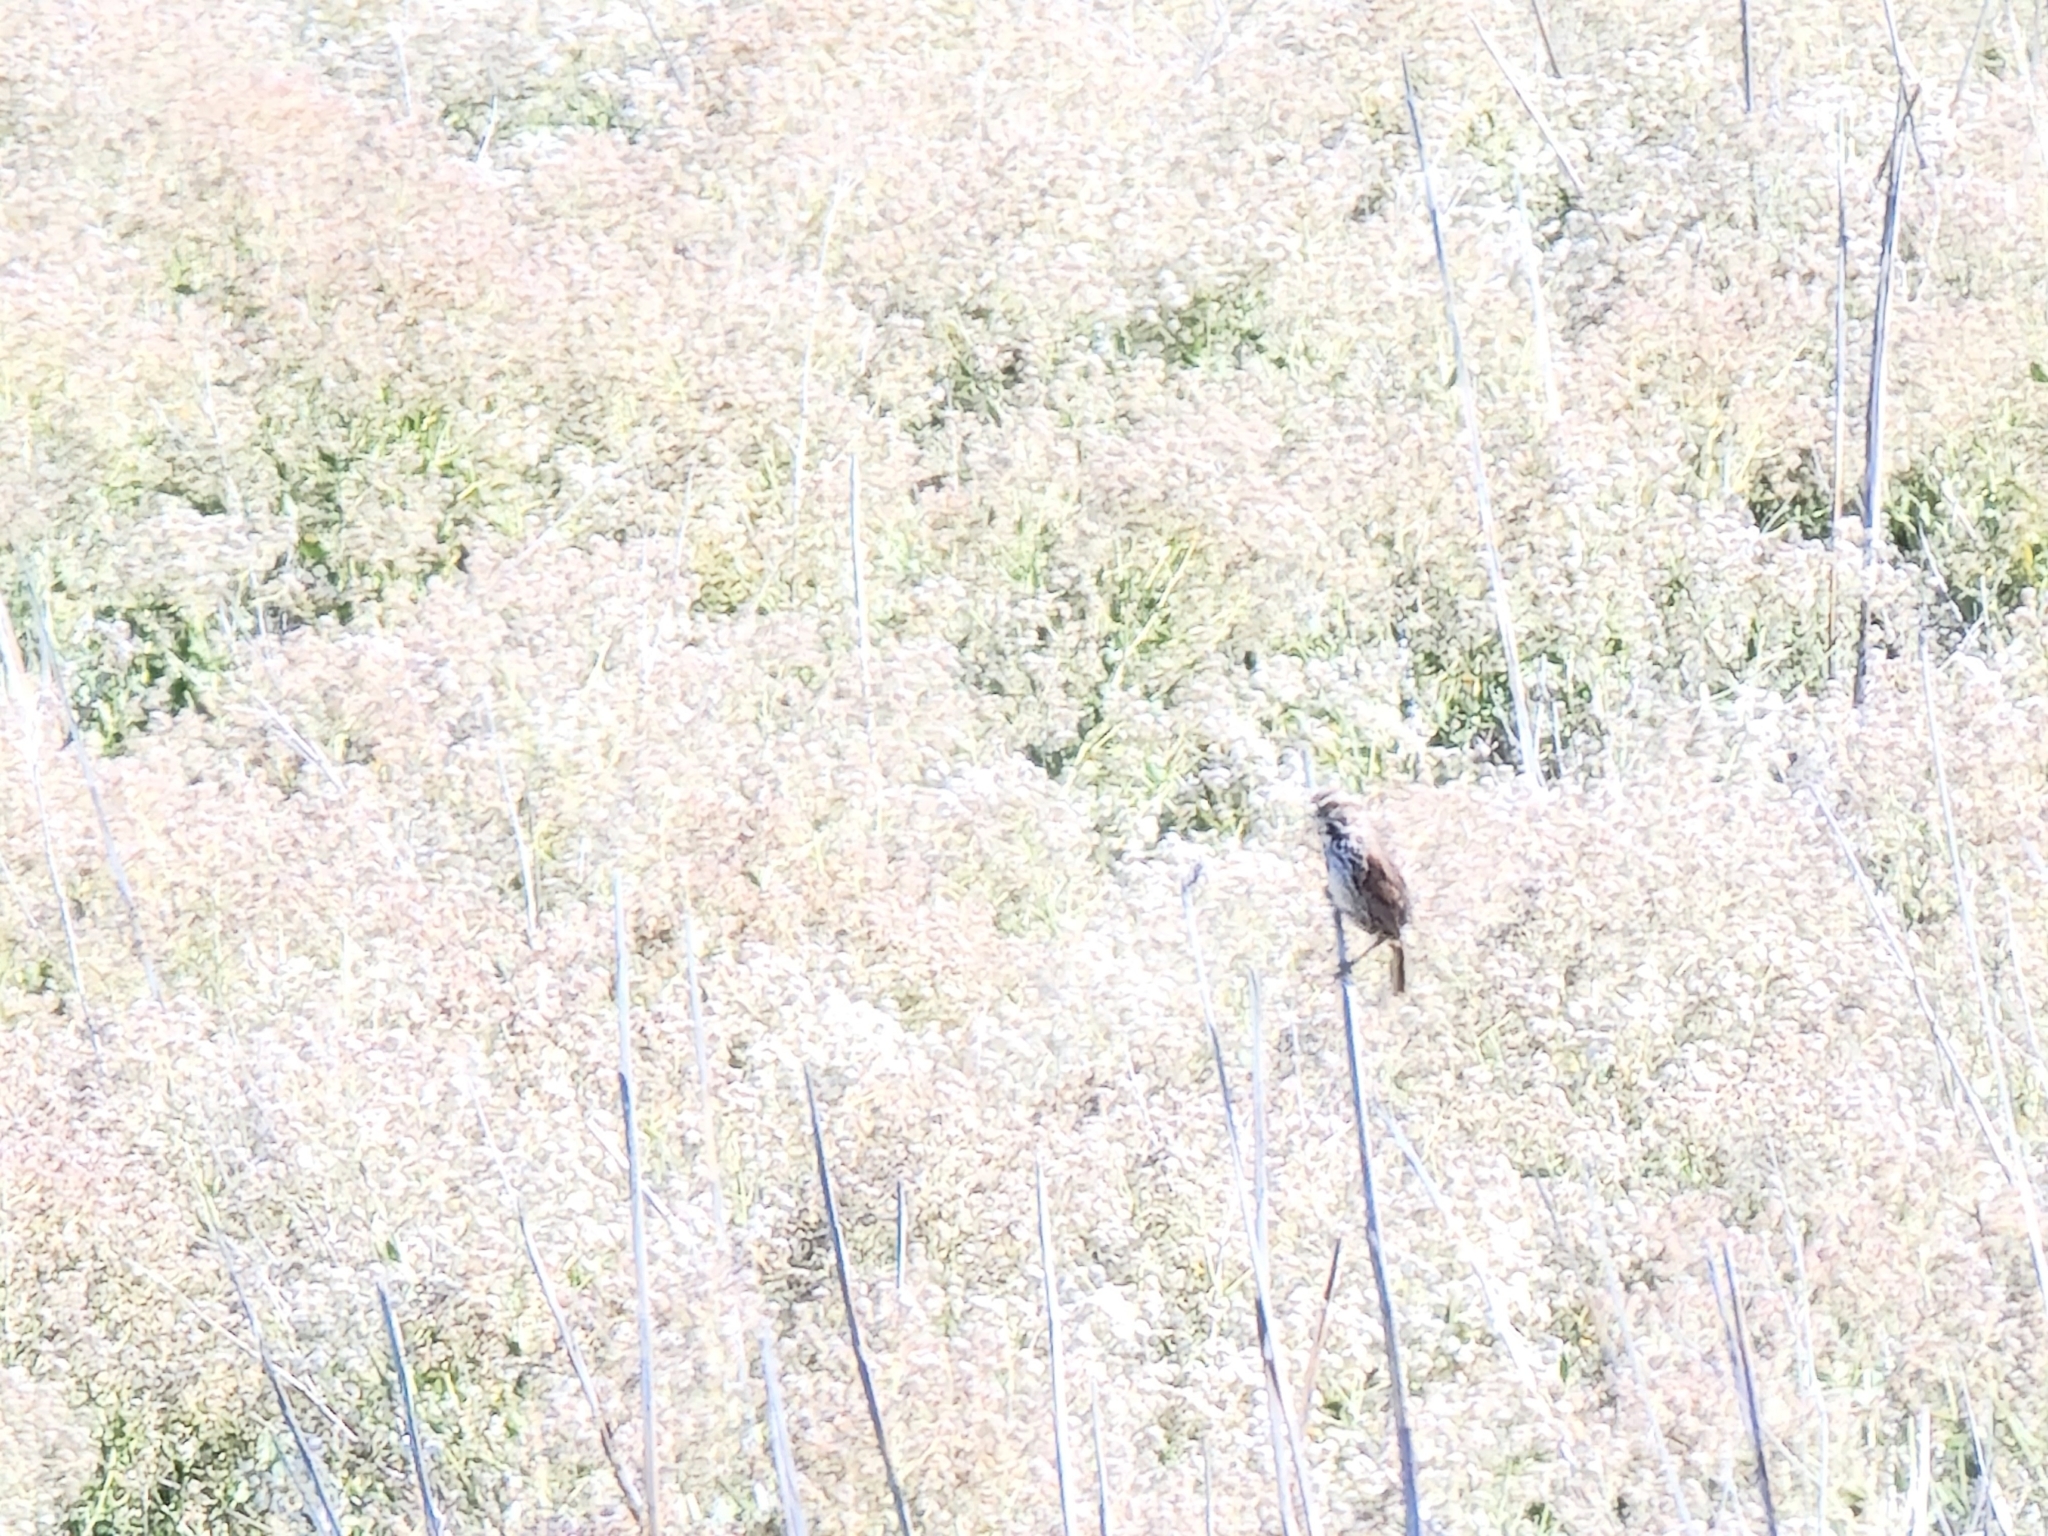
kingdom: Animalia
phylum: Chordata
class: Aves
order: Passeriformes
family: Passerellidae
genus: Melospiza
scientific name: Melospiza melodia
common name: Song sparrow
